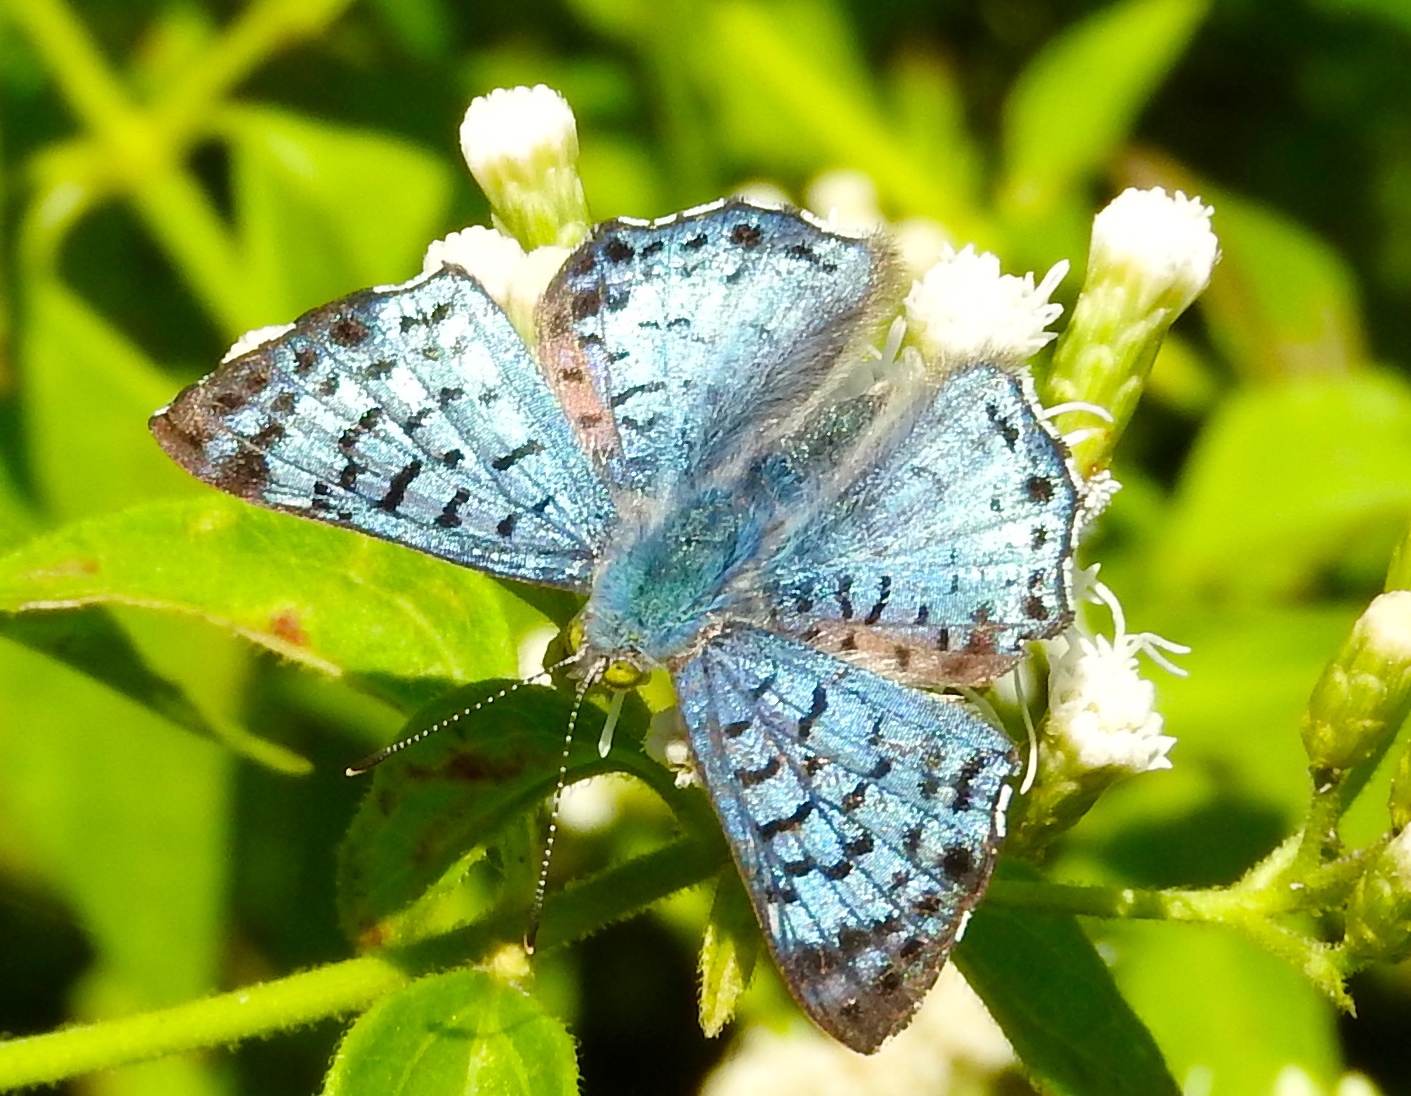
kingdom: Animalia
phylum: Arthropoda
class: Insecta
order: Lepidoptera
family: Riodinidae
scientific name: Riodinidae
